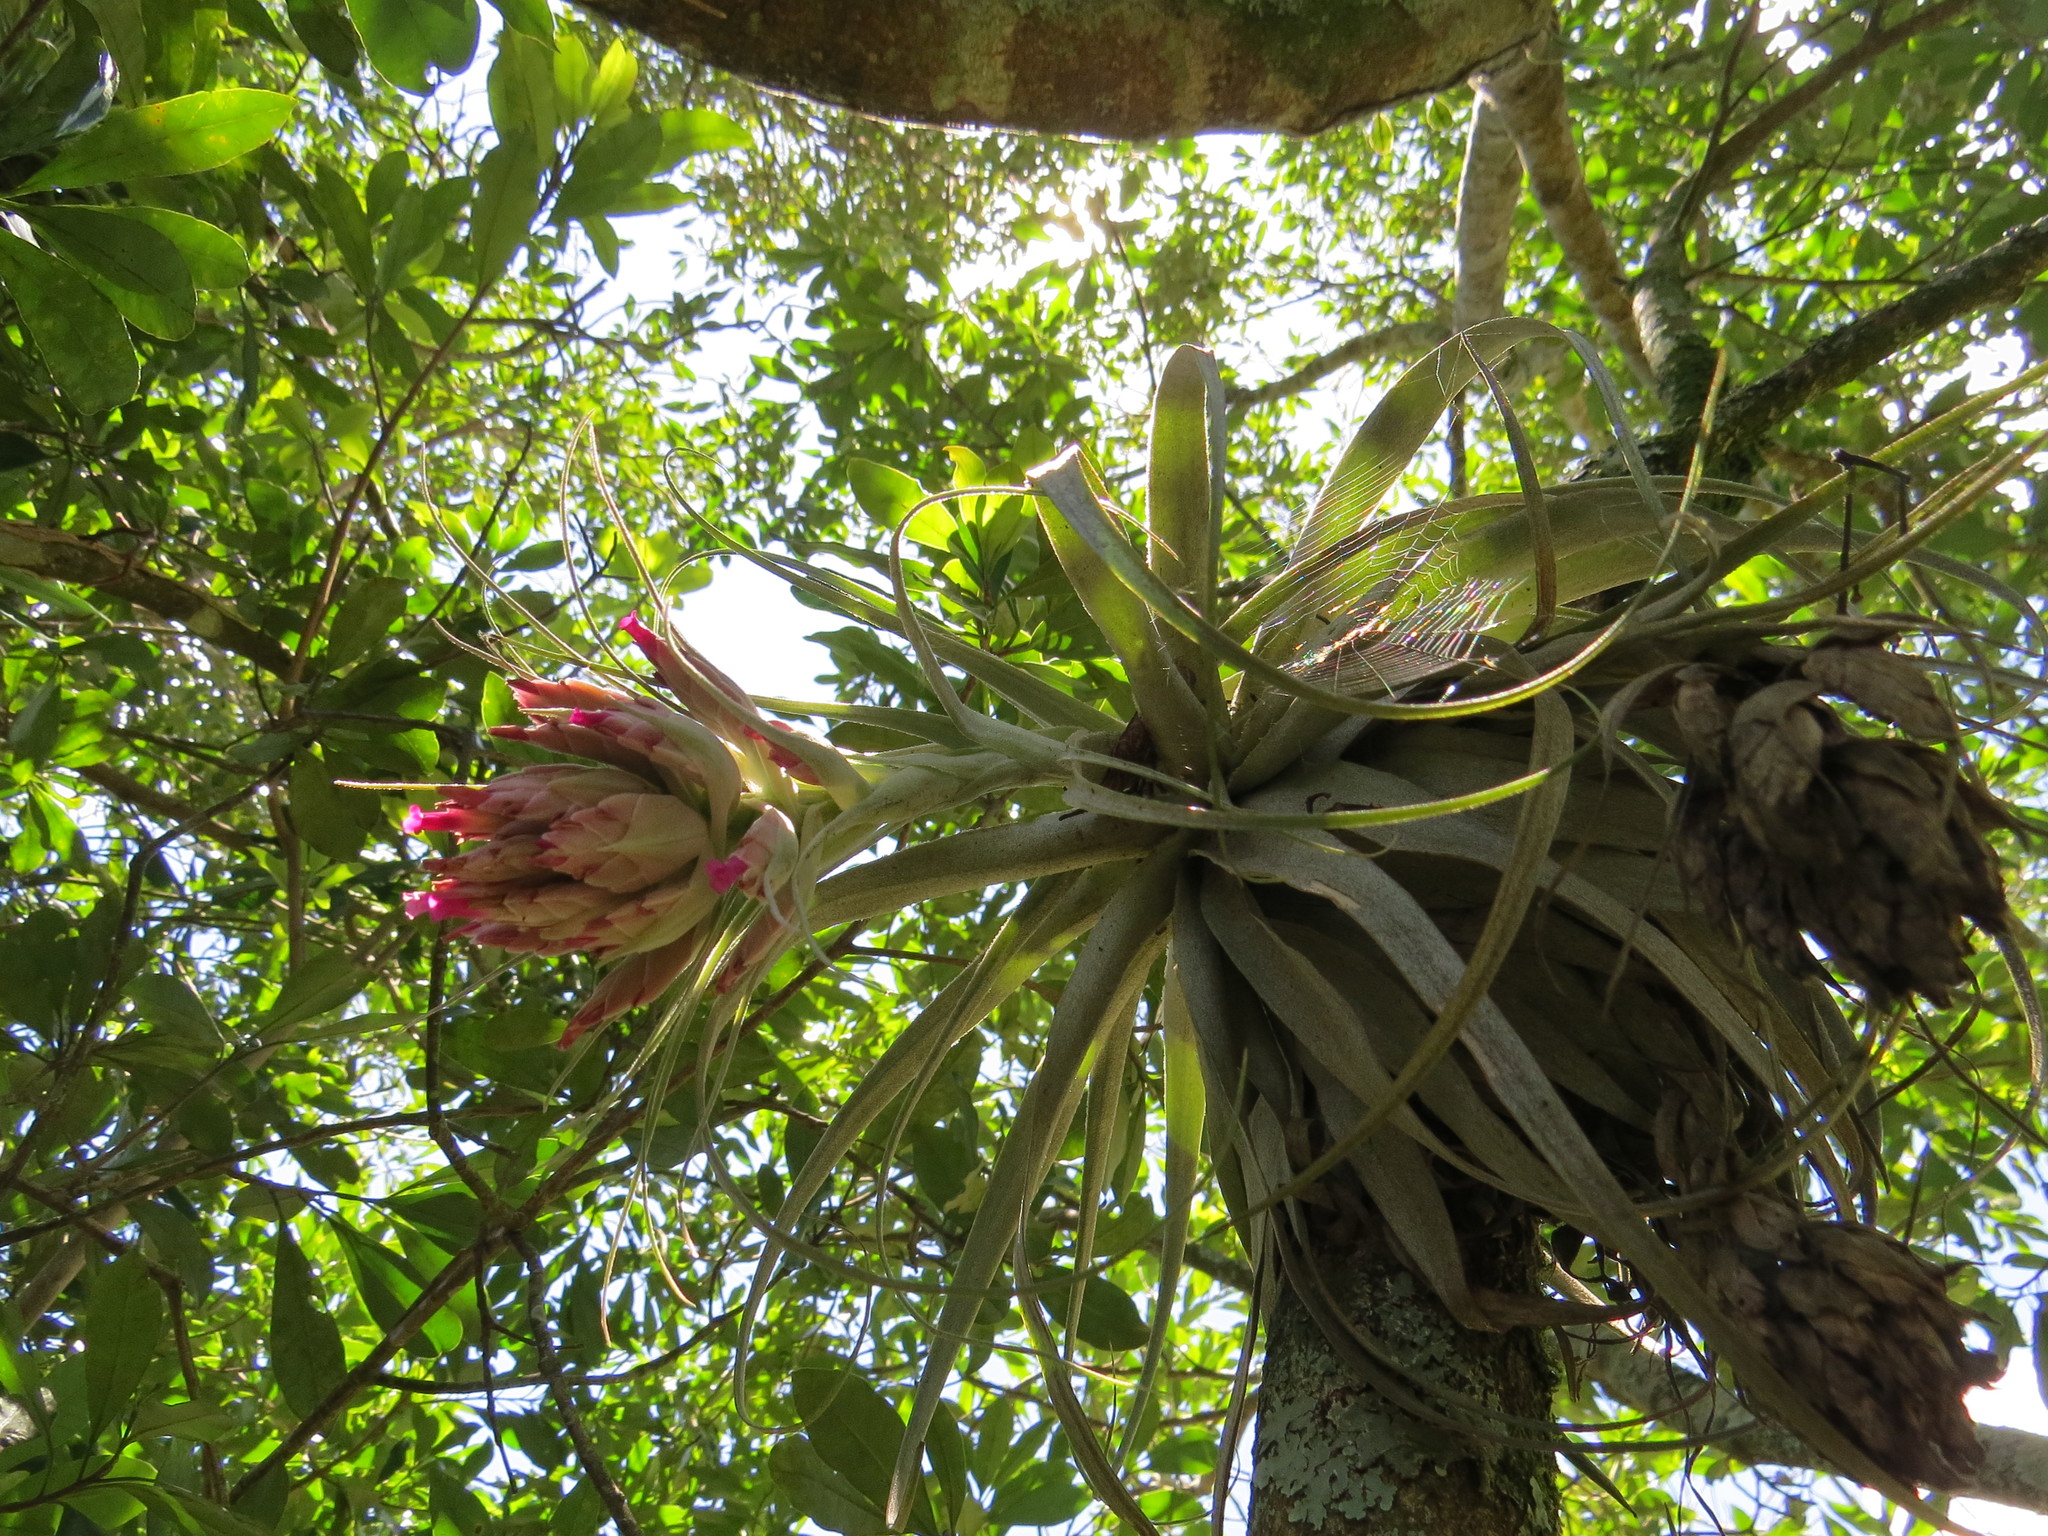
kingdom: Plantae
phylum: Tracheophyta
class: Liliopsida
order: Poales
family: Bromeliaceae
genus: Tillandsia
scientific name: Tillandsia gardneri
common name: Airplant
